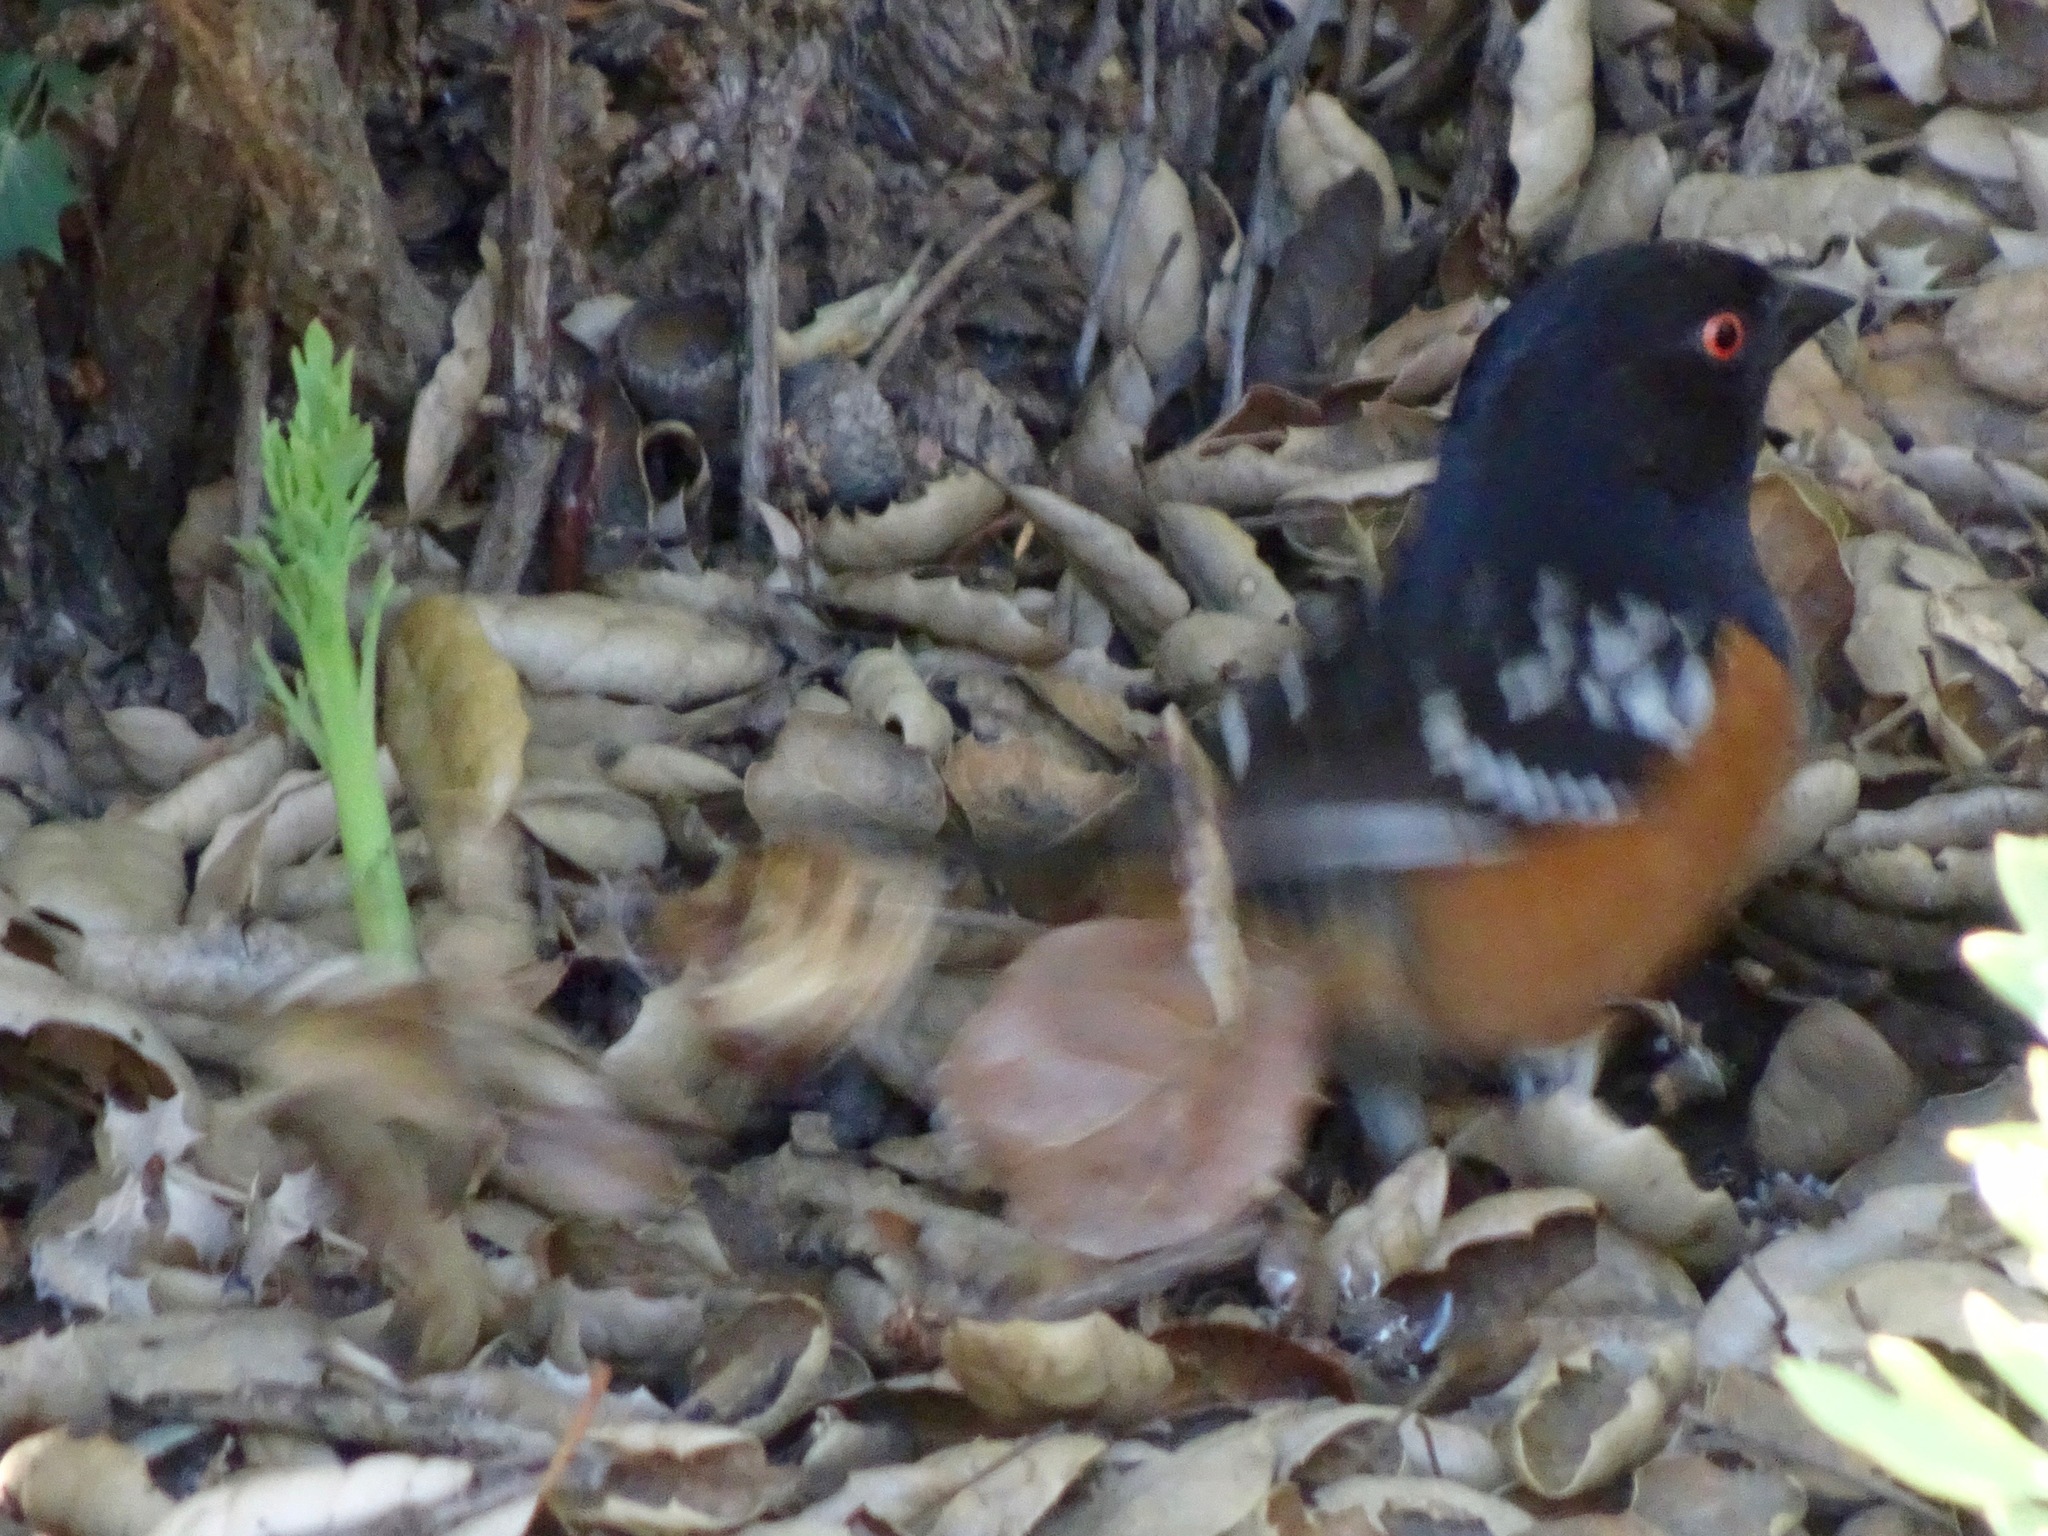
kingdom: Animalia
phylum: Chordata
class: Aves
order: Passeriformes
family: Passerellidae
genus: Pipilo
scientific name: Pipilo maculatus
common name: Spotted towhee
